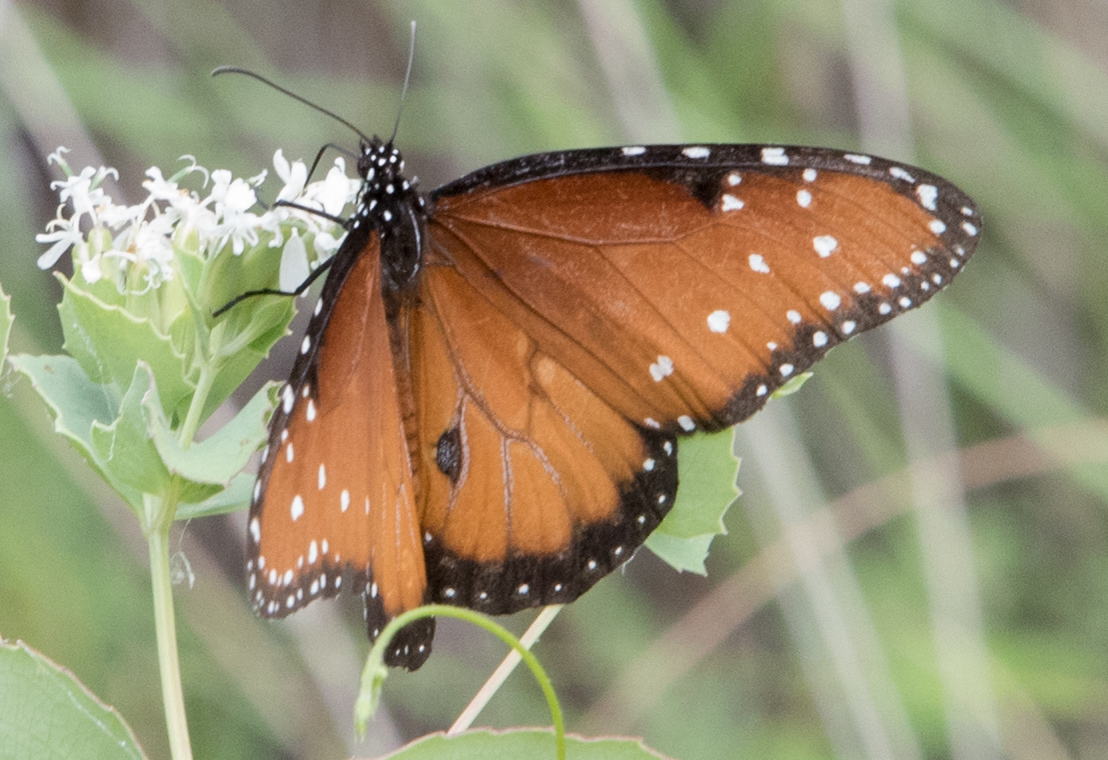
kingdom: Animalia
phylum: Arthropoda
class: Insecta
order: Lepidoptera
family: Nymphalidae
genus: Danaus
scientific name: Danaus gilippus
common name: Queen
